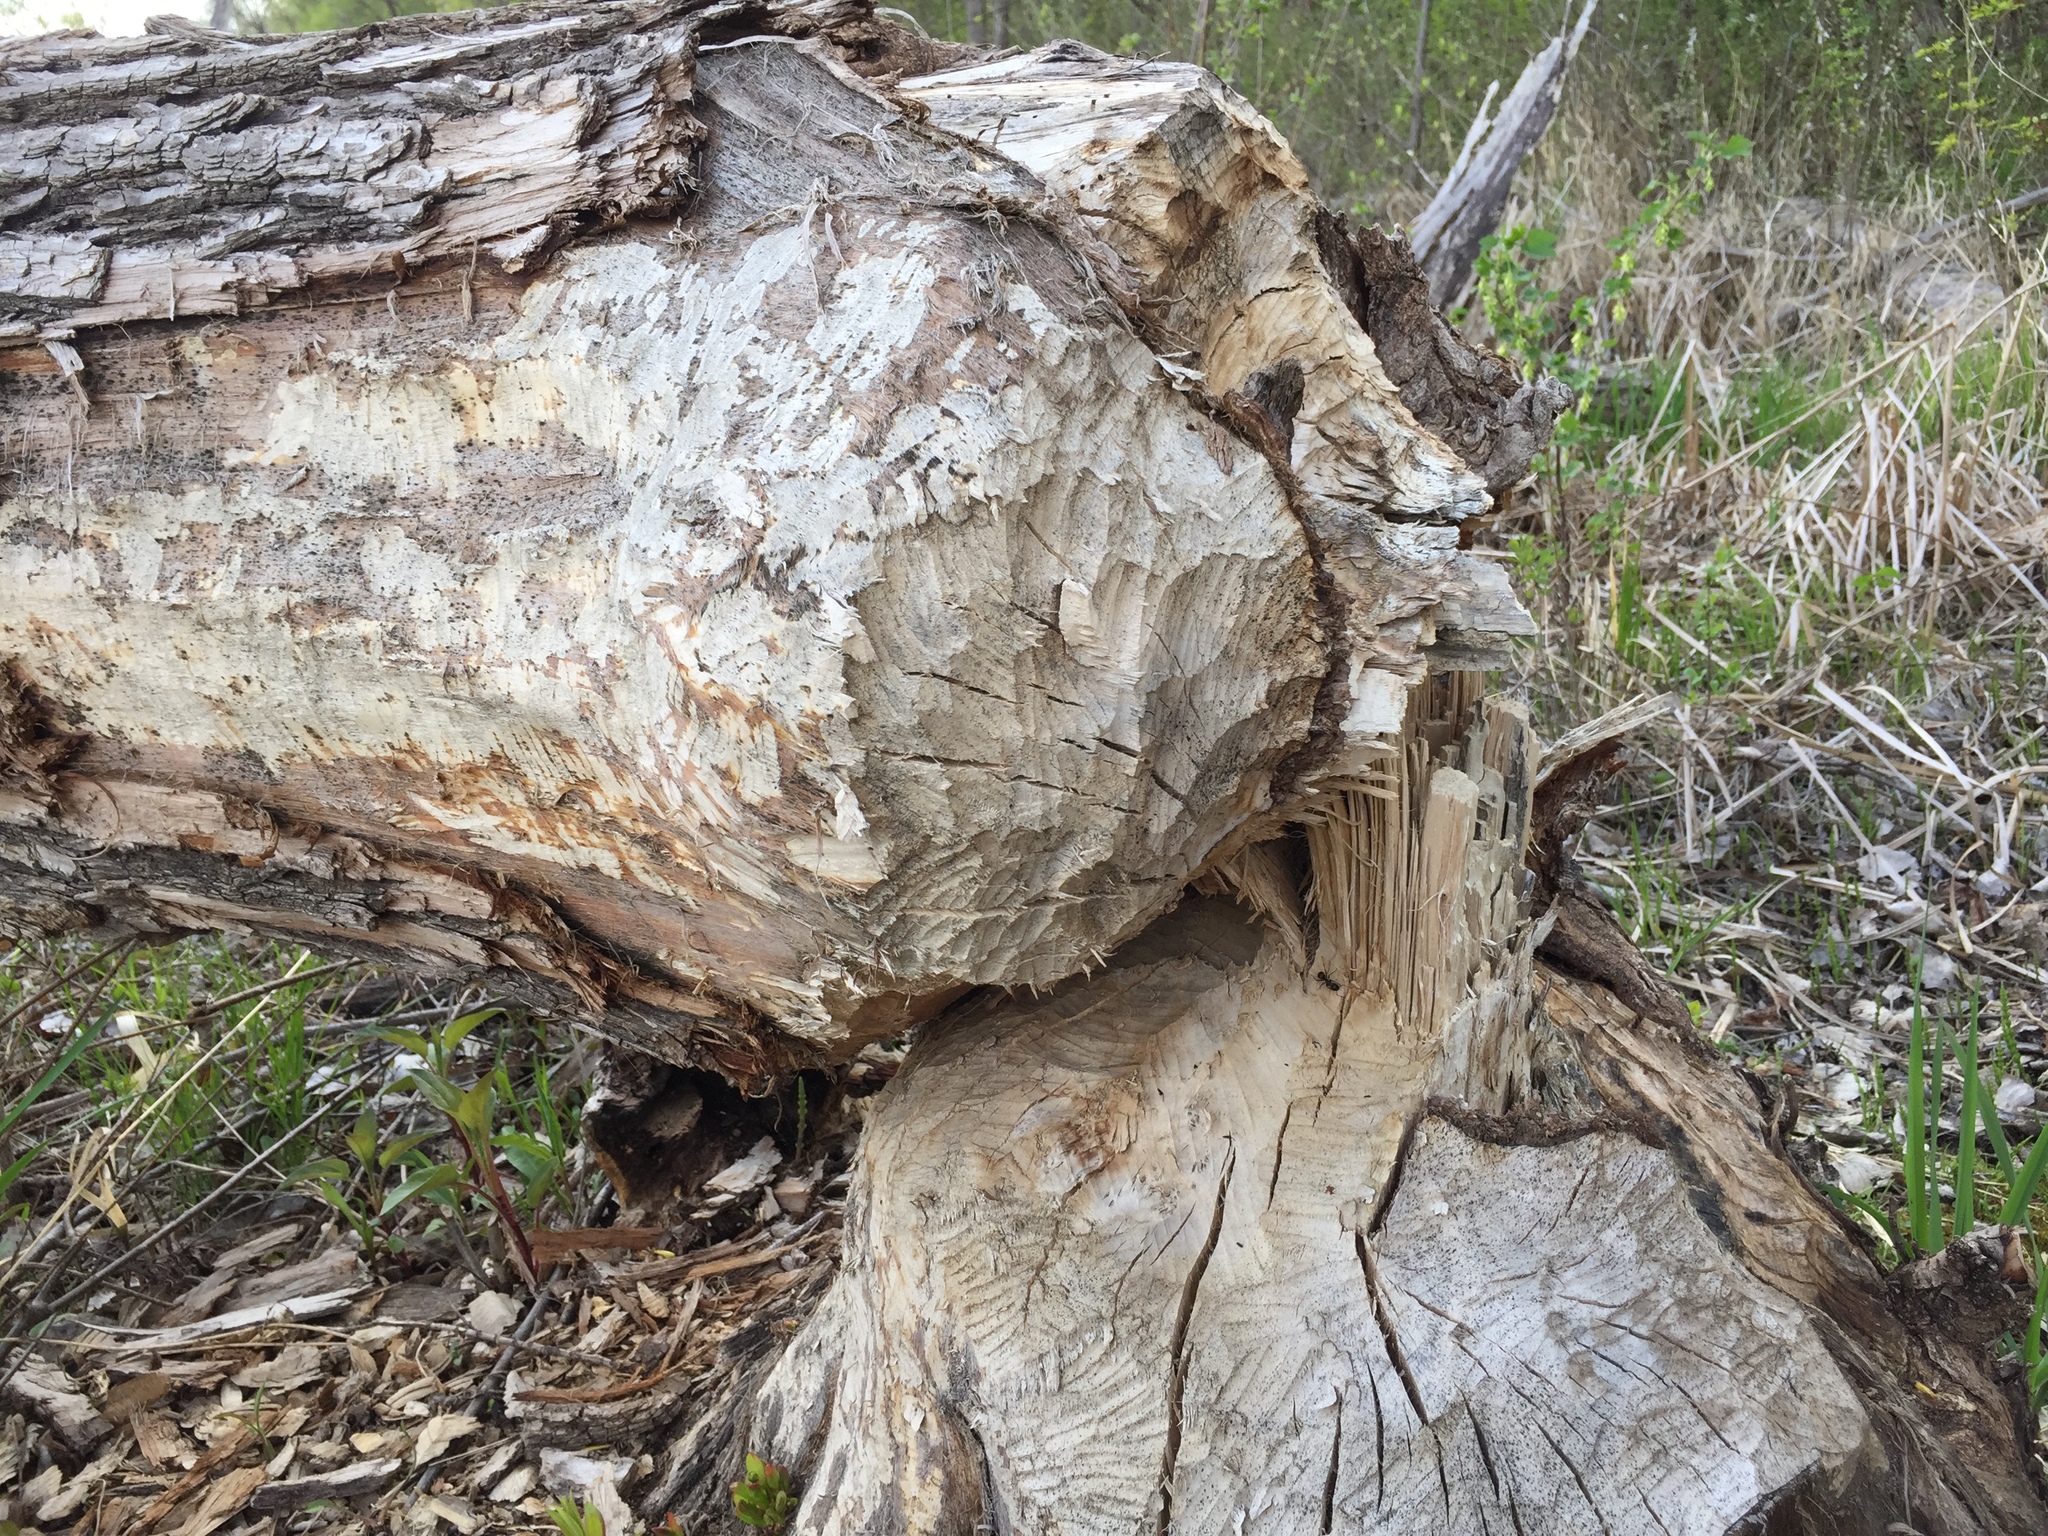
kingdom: Animalia
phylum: Chordata
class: Mammalia
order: Rodentia
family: Castoridae
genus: Castor
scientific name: Castor canadensis
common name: American beaver
